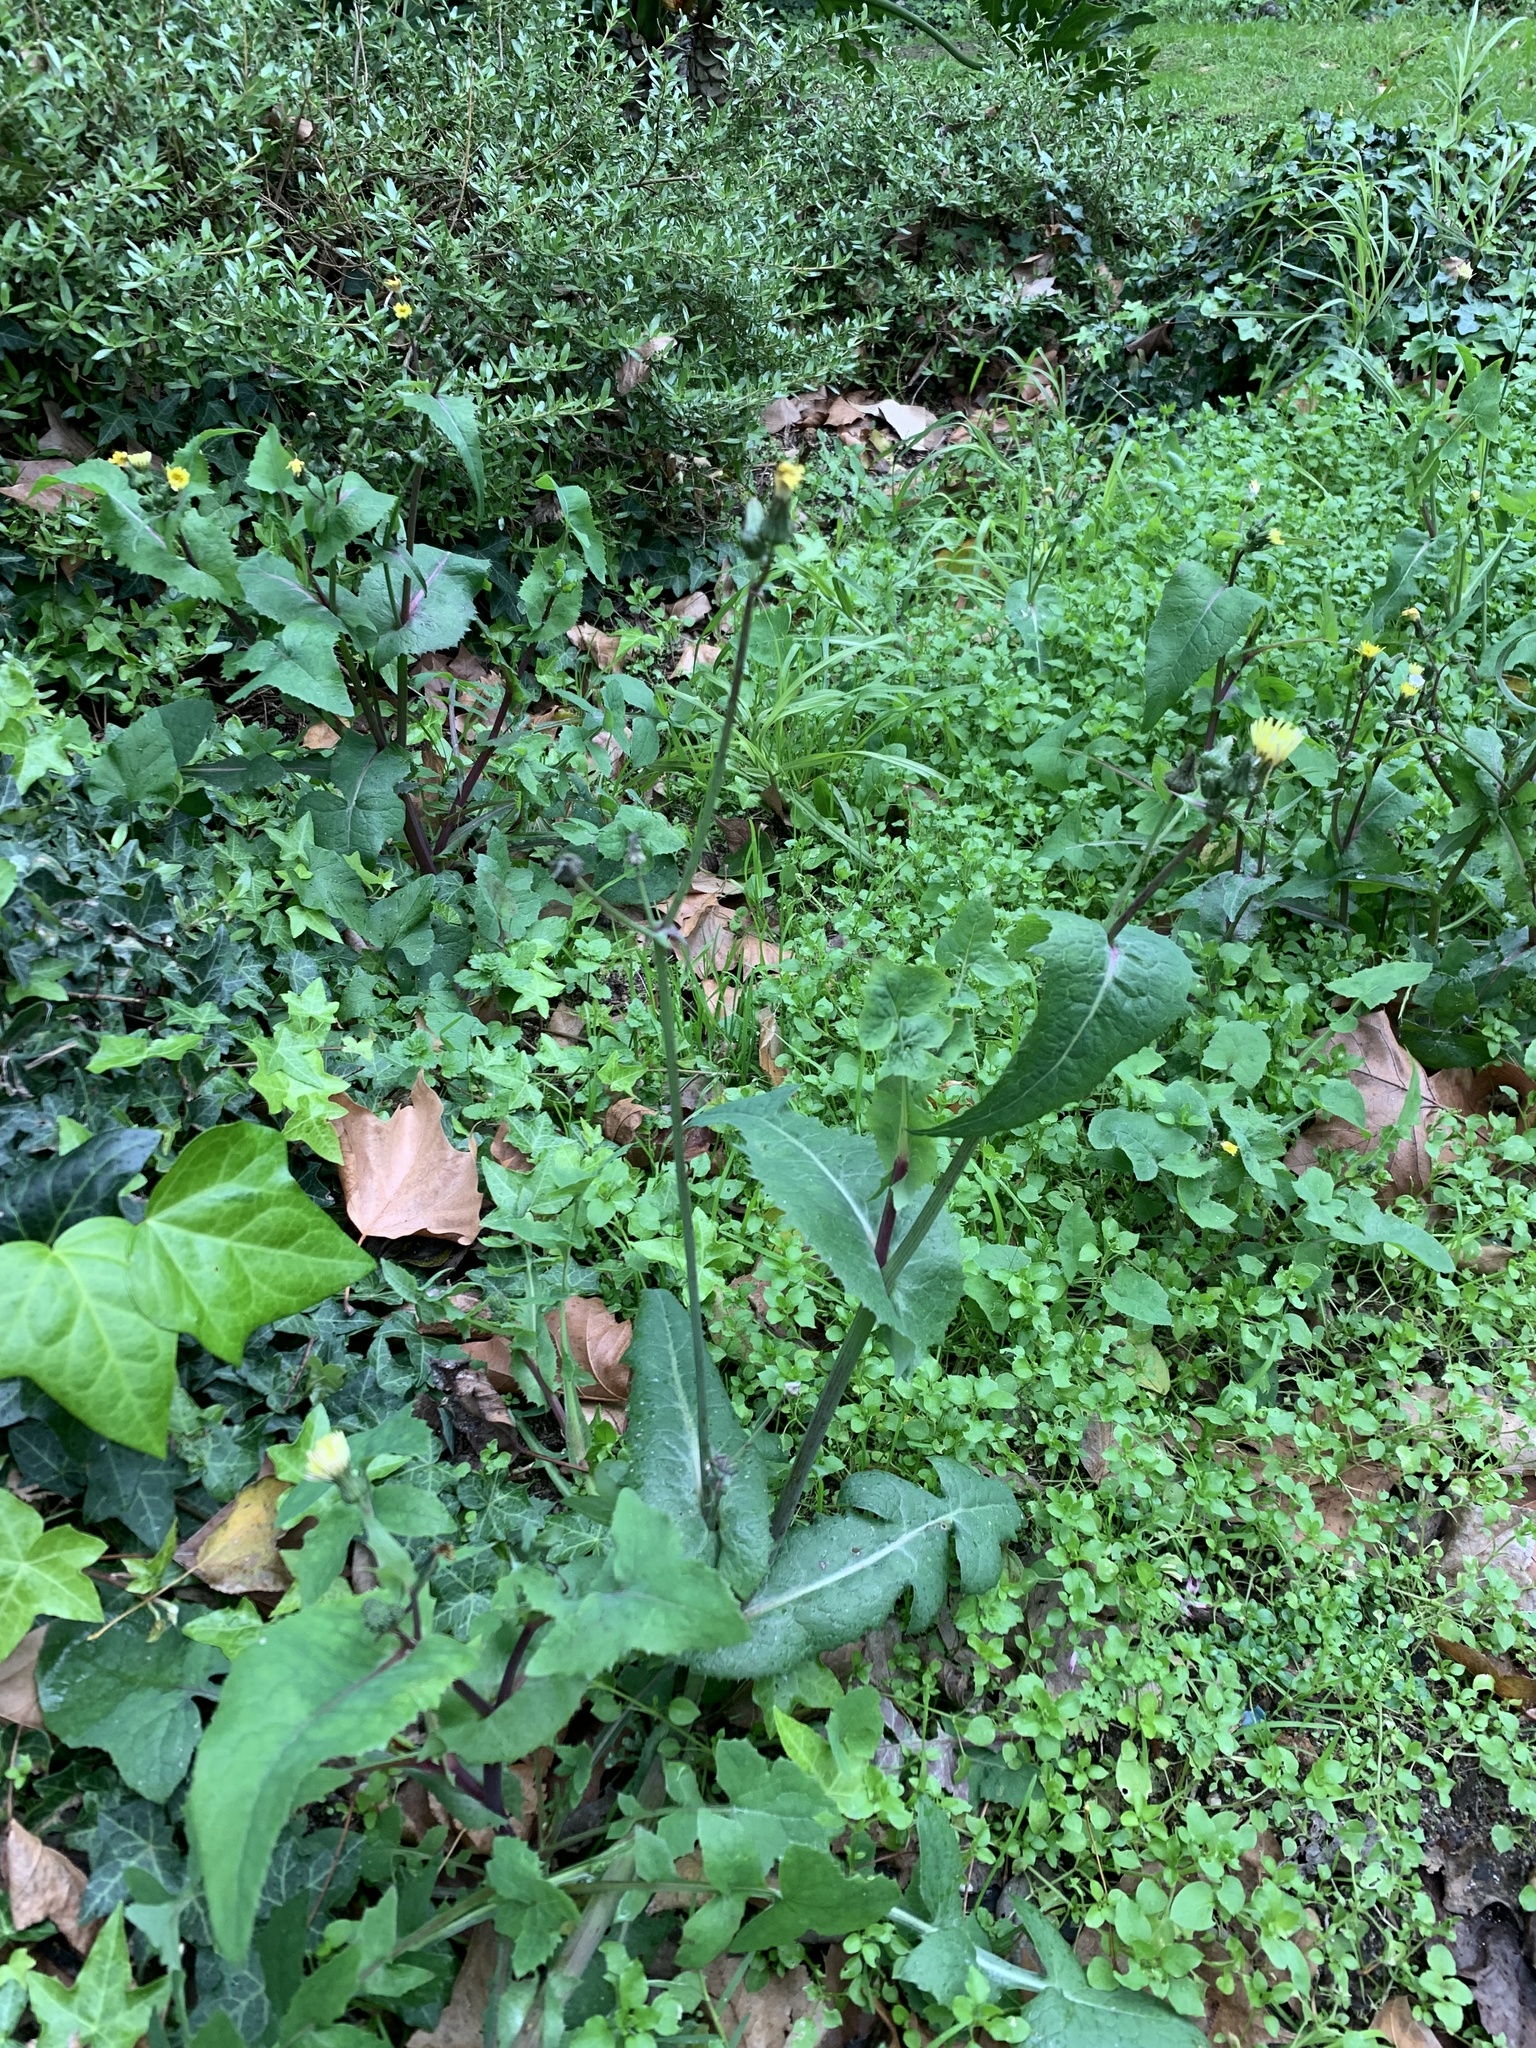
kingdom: Plantae
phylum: Tracheophyta
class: Magnoliopsida
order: Asterales
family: Asteraceae
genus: Sonchus
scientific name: Sonchus oleraceus
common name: Common sowthistle
